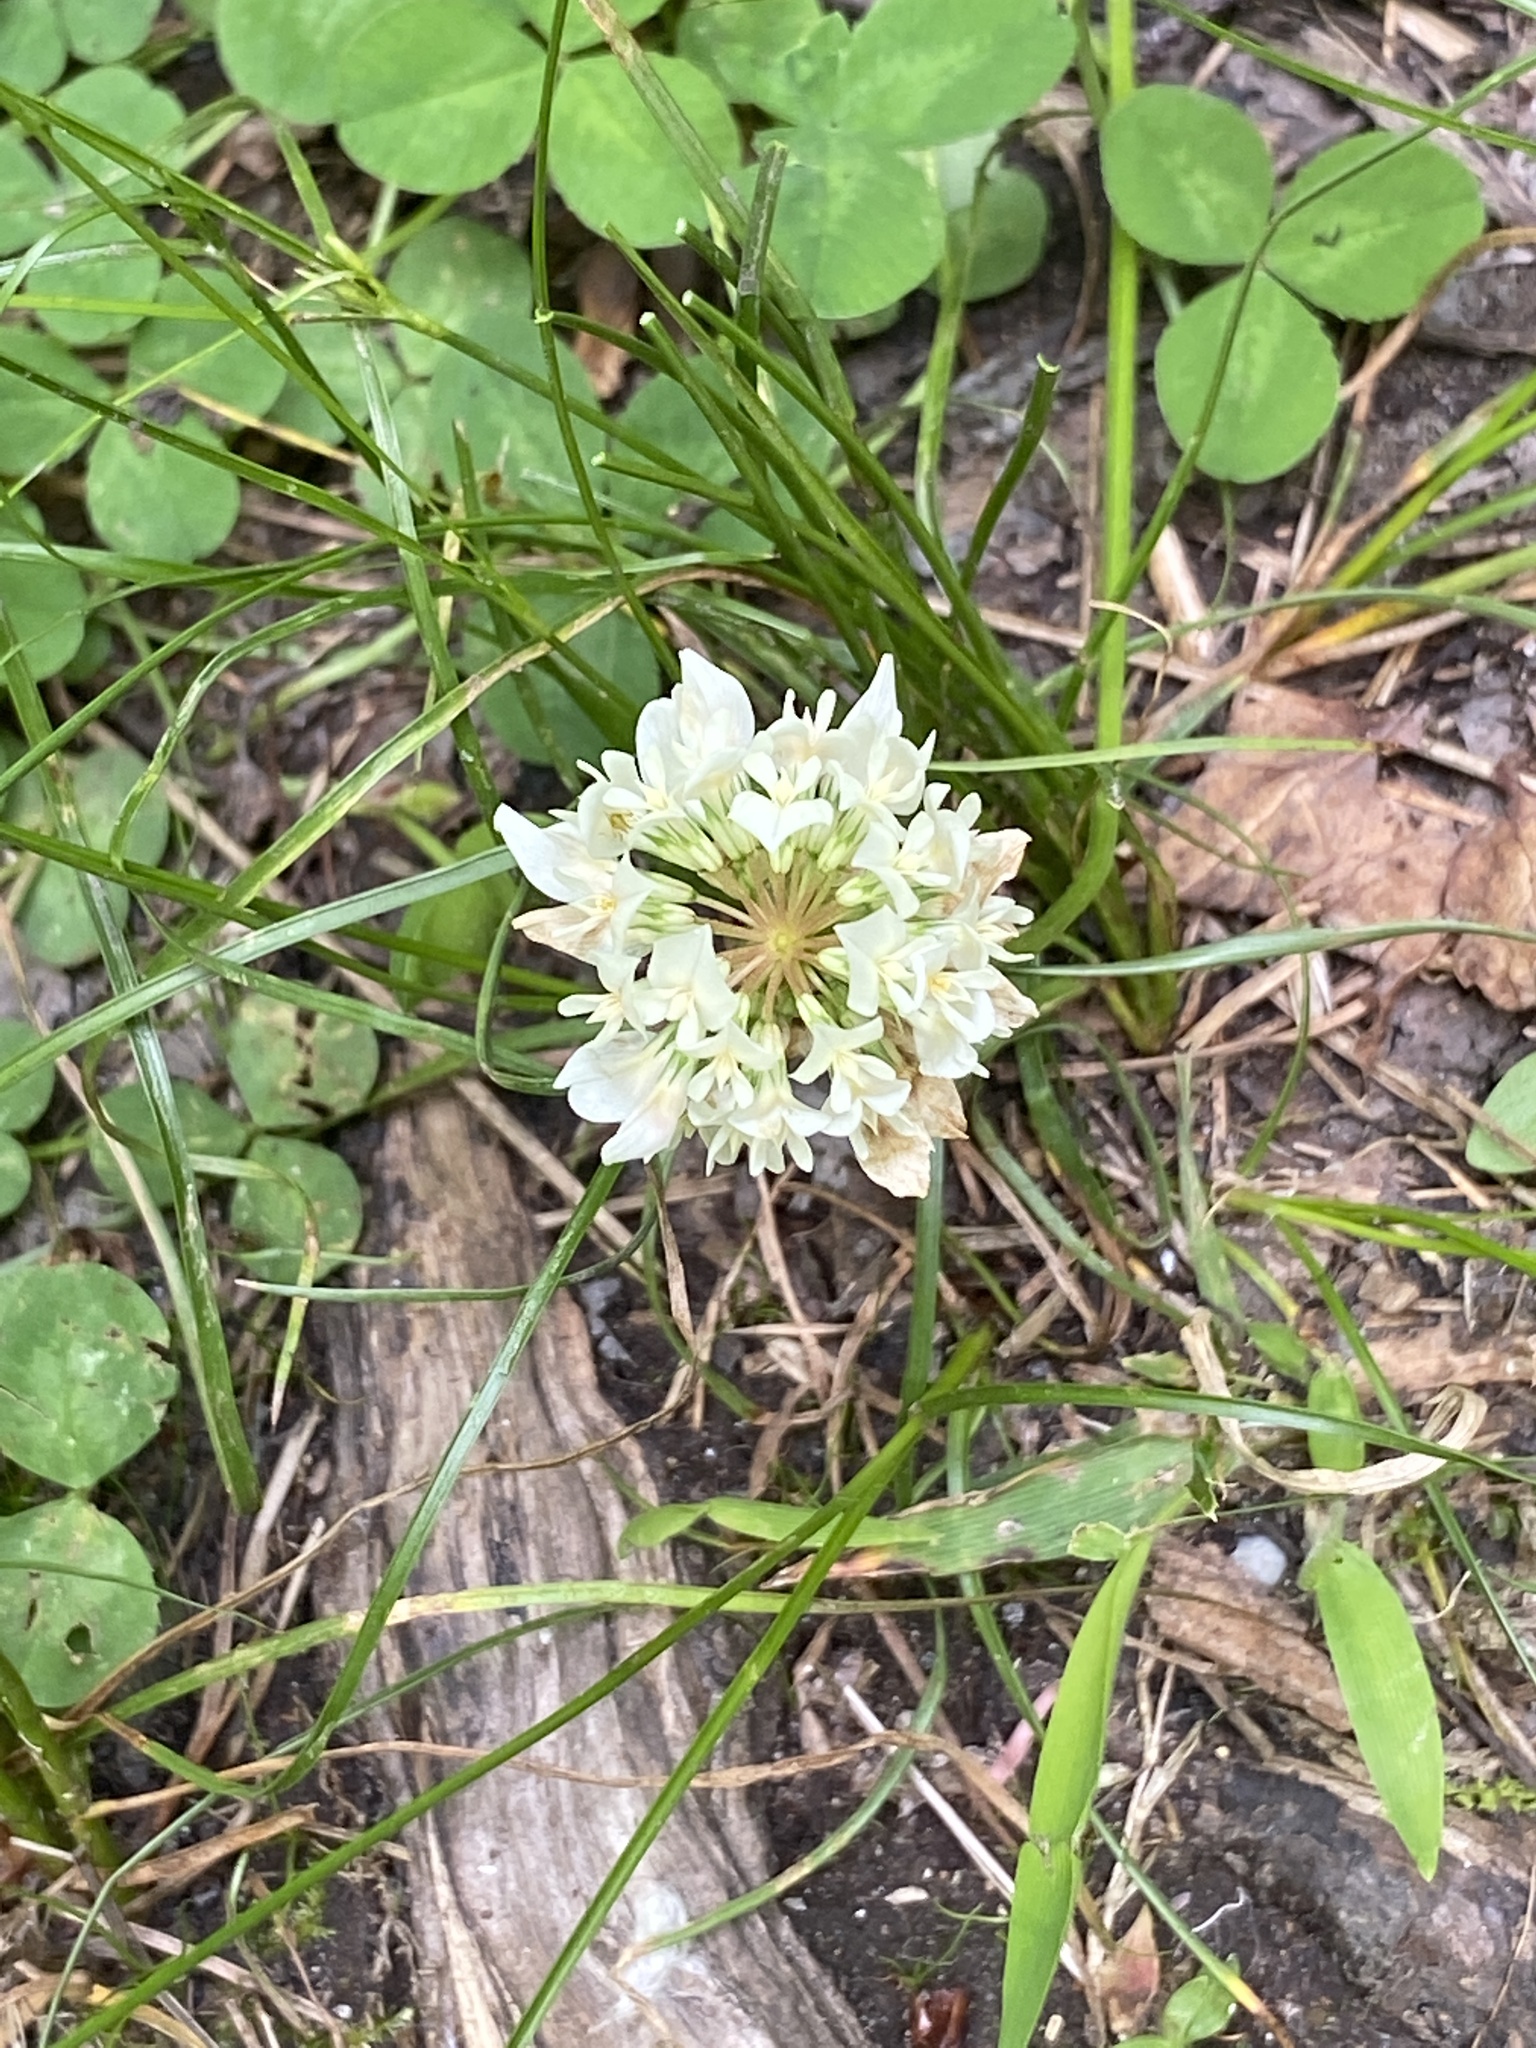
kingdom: Plantae
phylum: Tracheophyta
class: Magnoliopsida
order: Fabales
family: Fabaceae
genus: Trifolium
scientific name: Trifolium repens
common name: White clover
